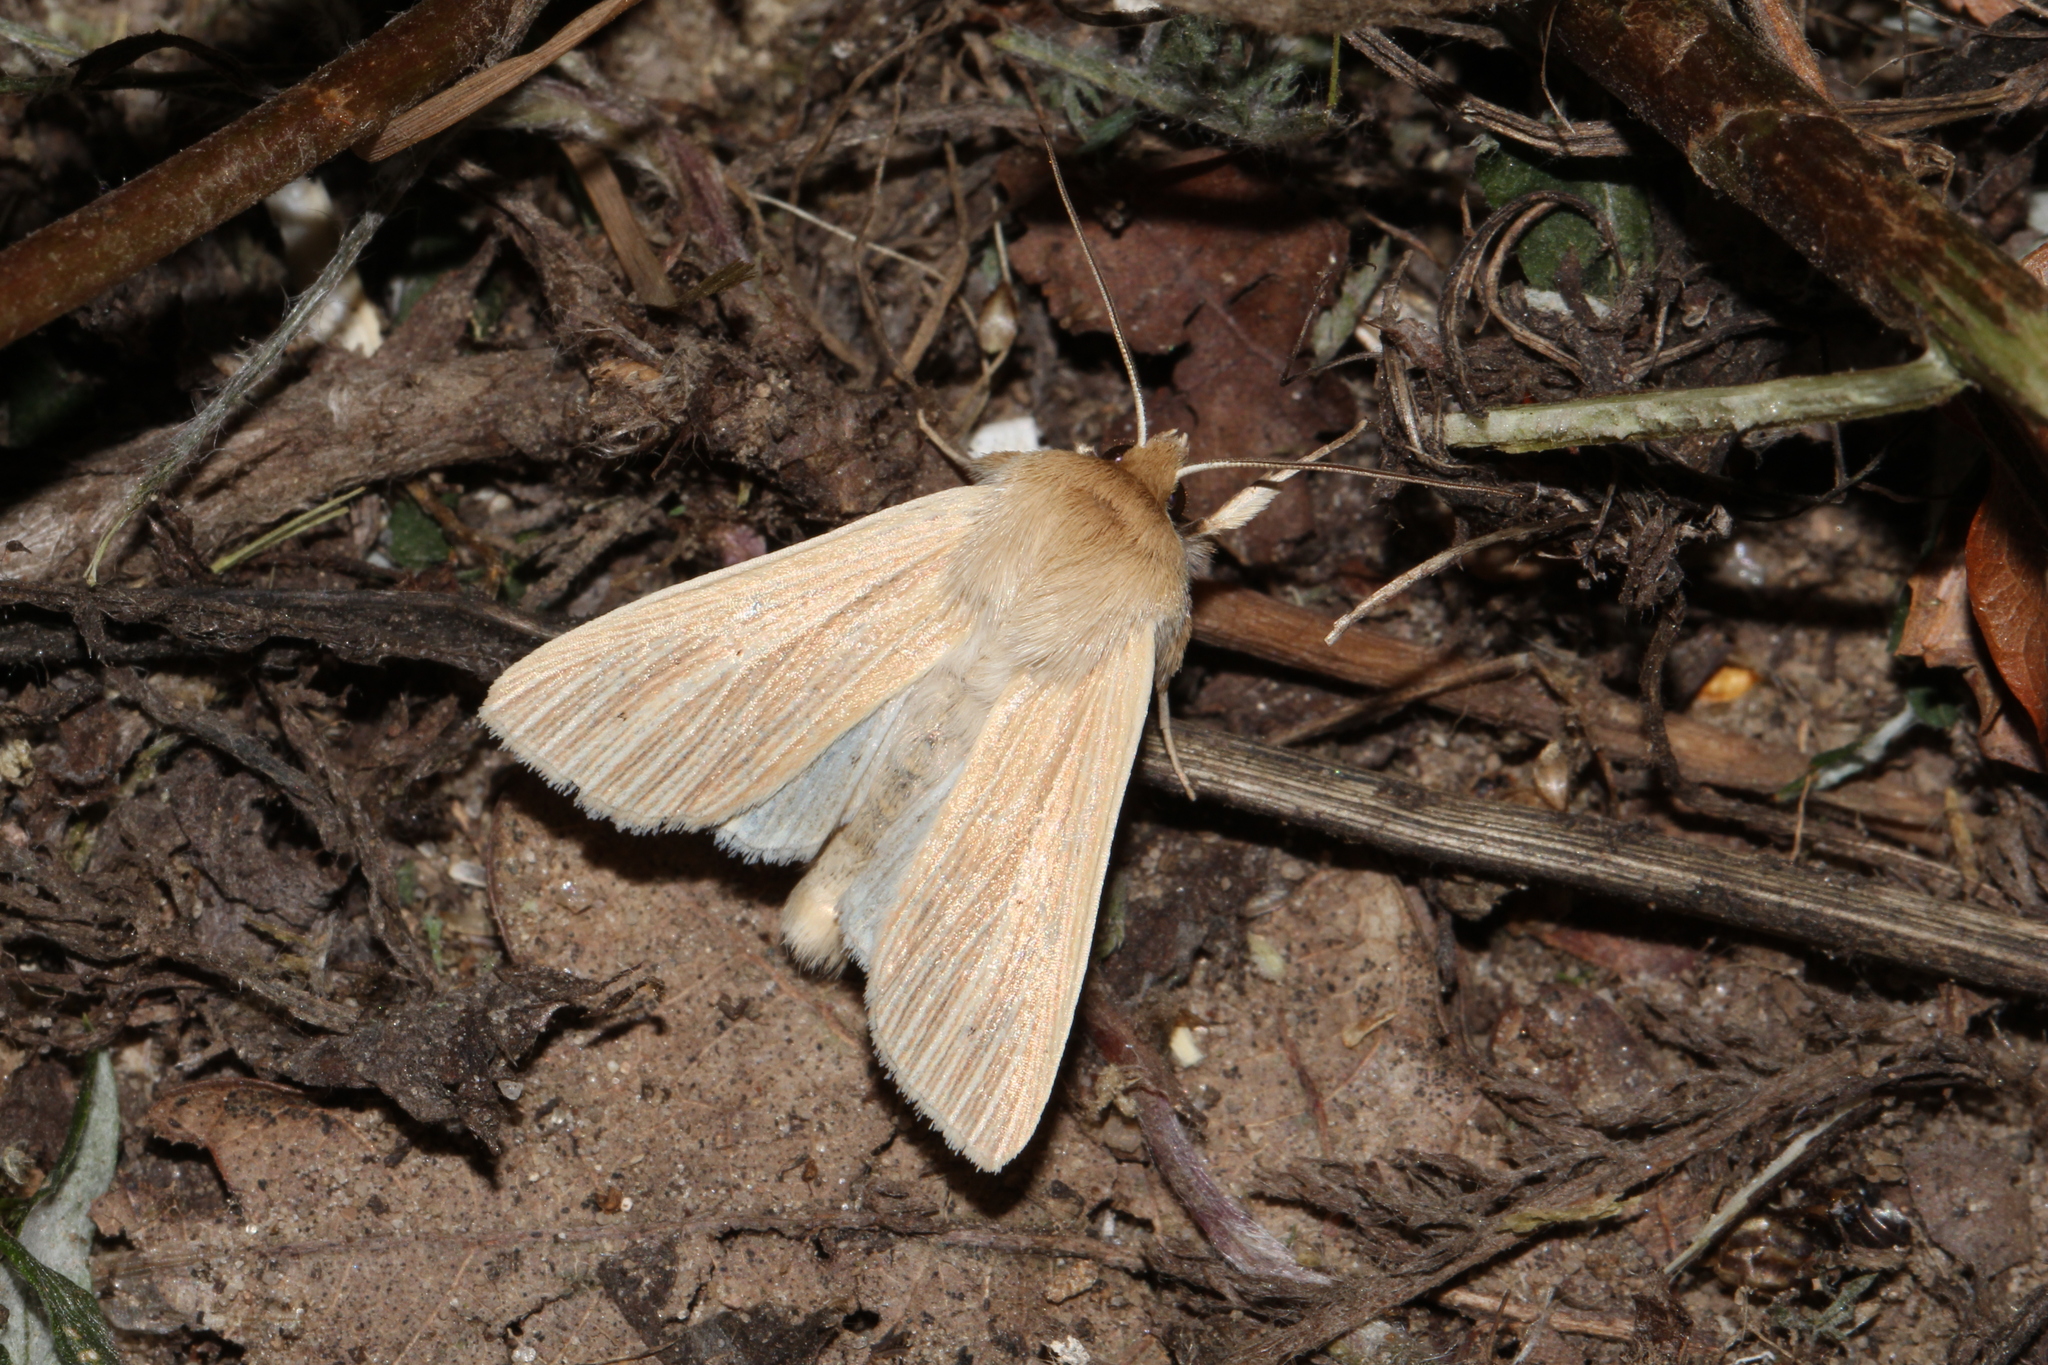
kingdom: Animalia
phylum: Arthropoda
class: Insecta
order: Lepidoptera
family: Noctuidae
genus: Mythimna
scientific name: Mythimna pallens
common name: Common wainscot
